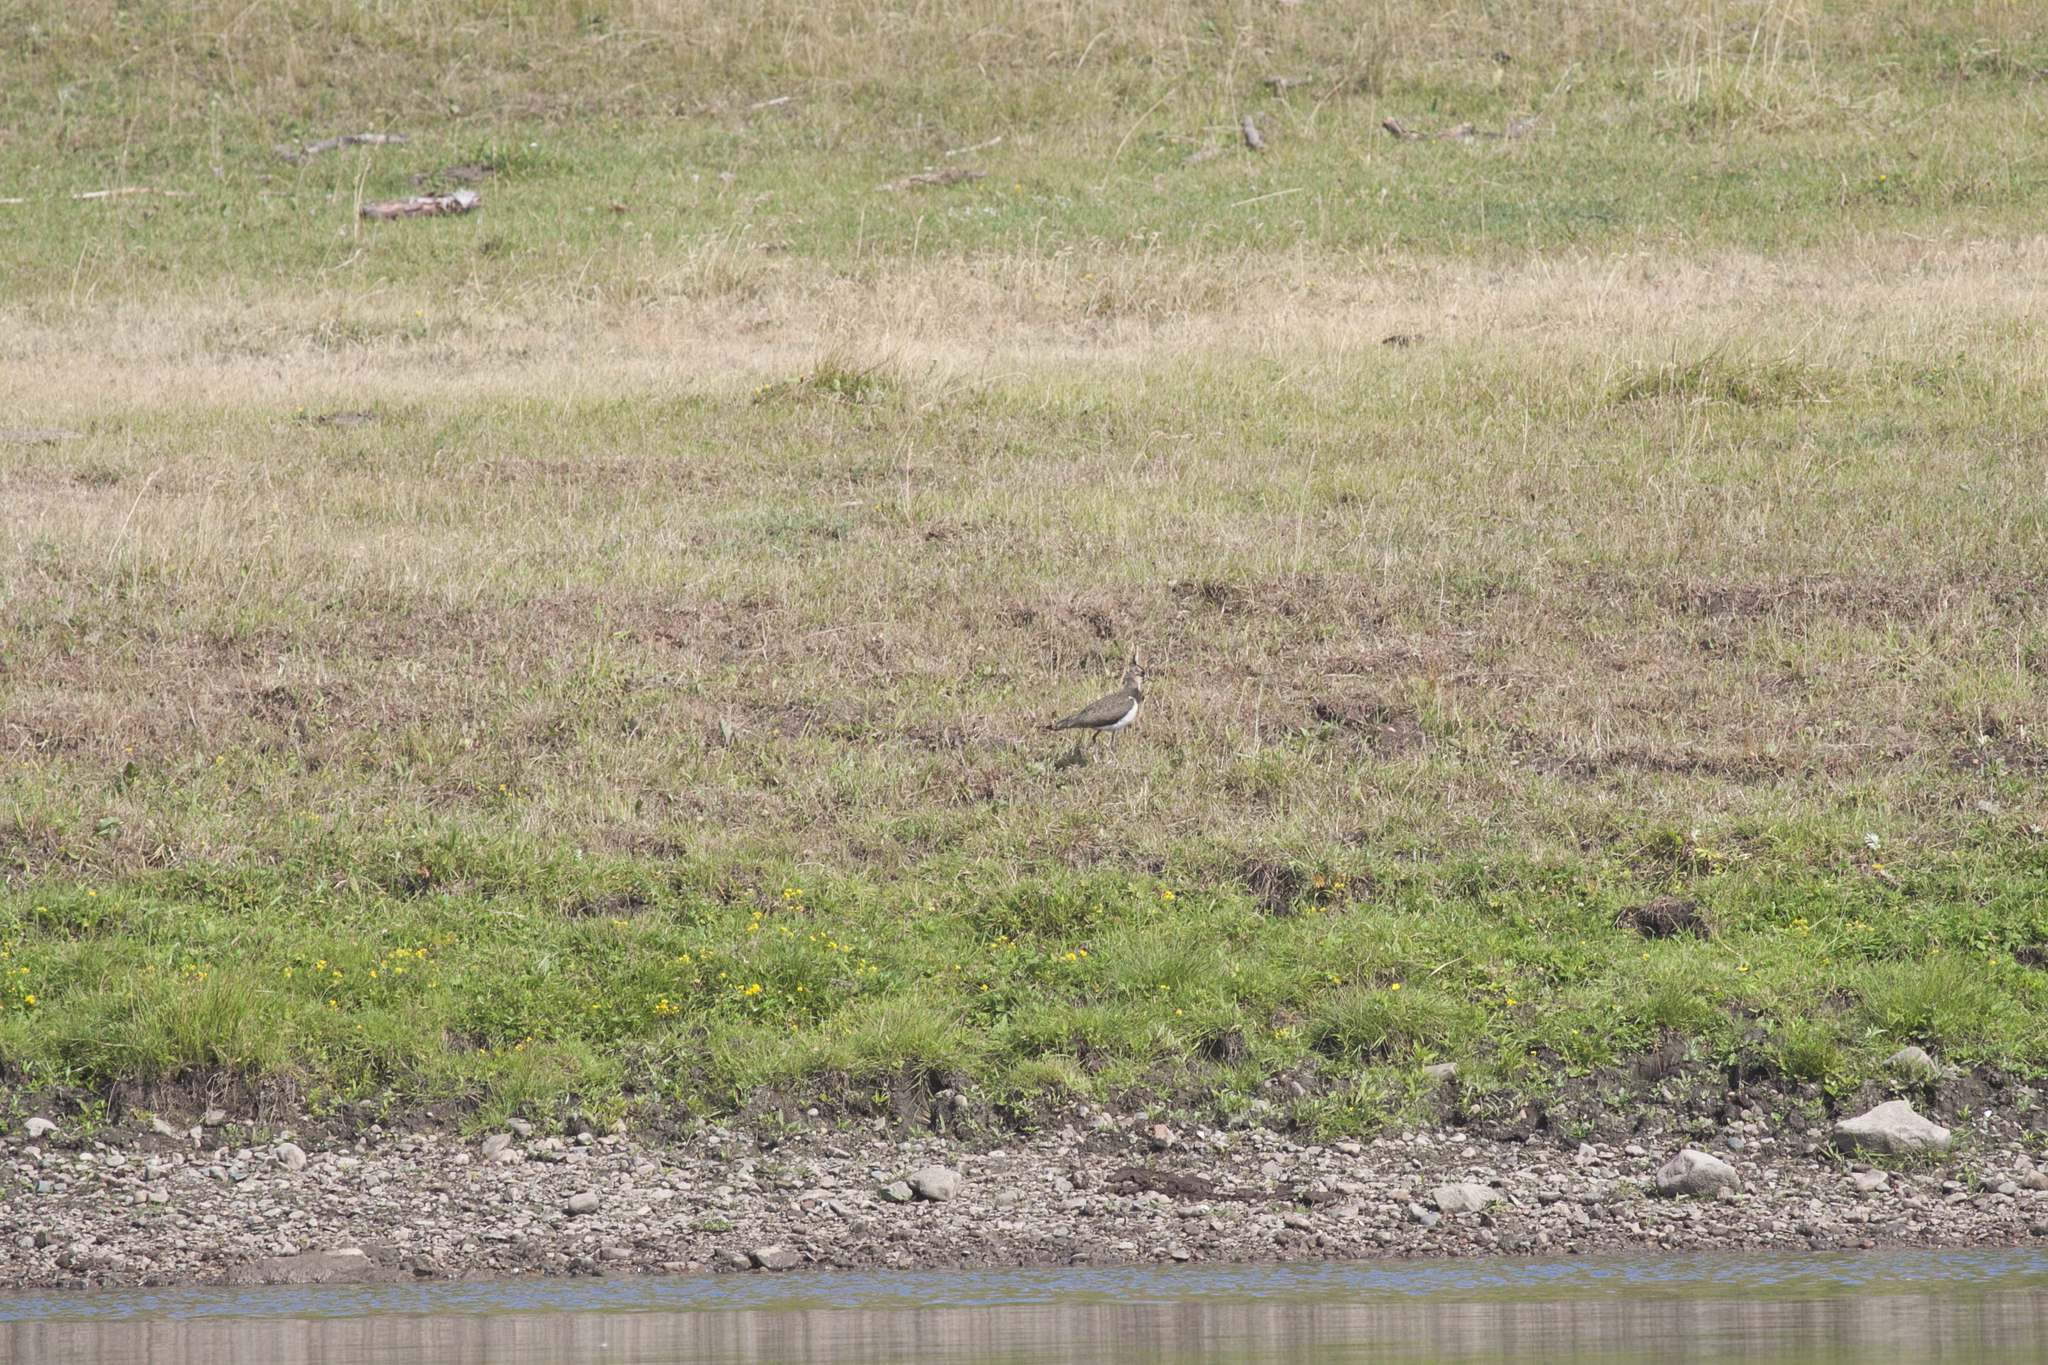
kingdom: Animalia
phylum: Chordata
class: Aves
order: Charadriiformes
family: Charadriidae
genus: Vanellus
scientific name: Vanellus vanellus
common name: Northern lapwing
